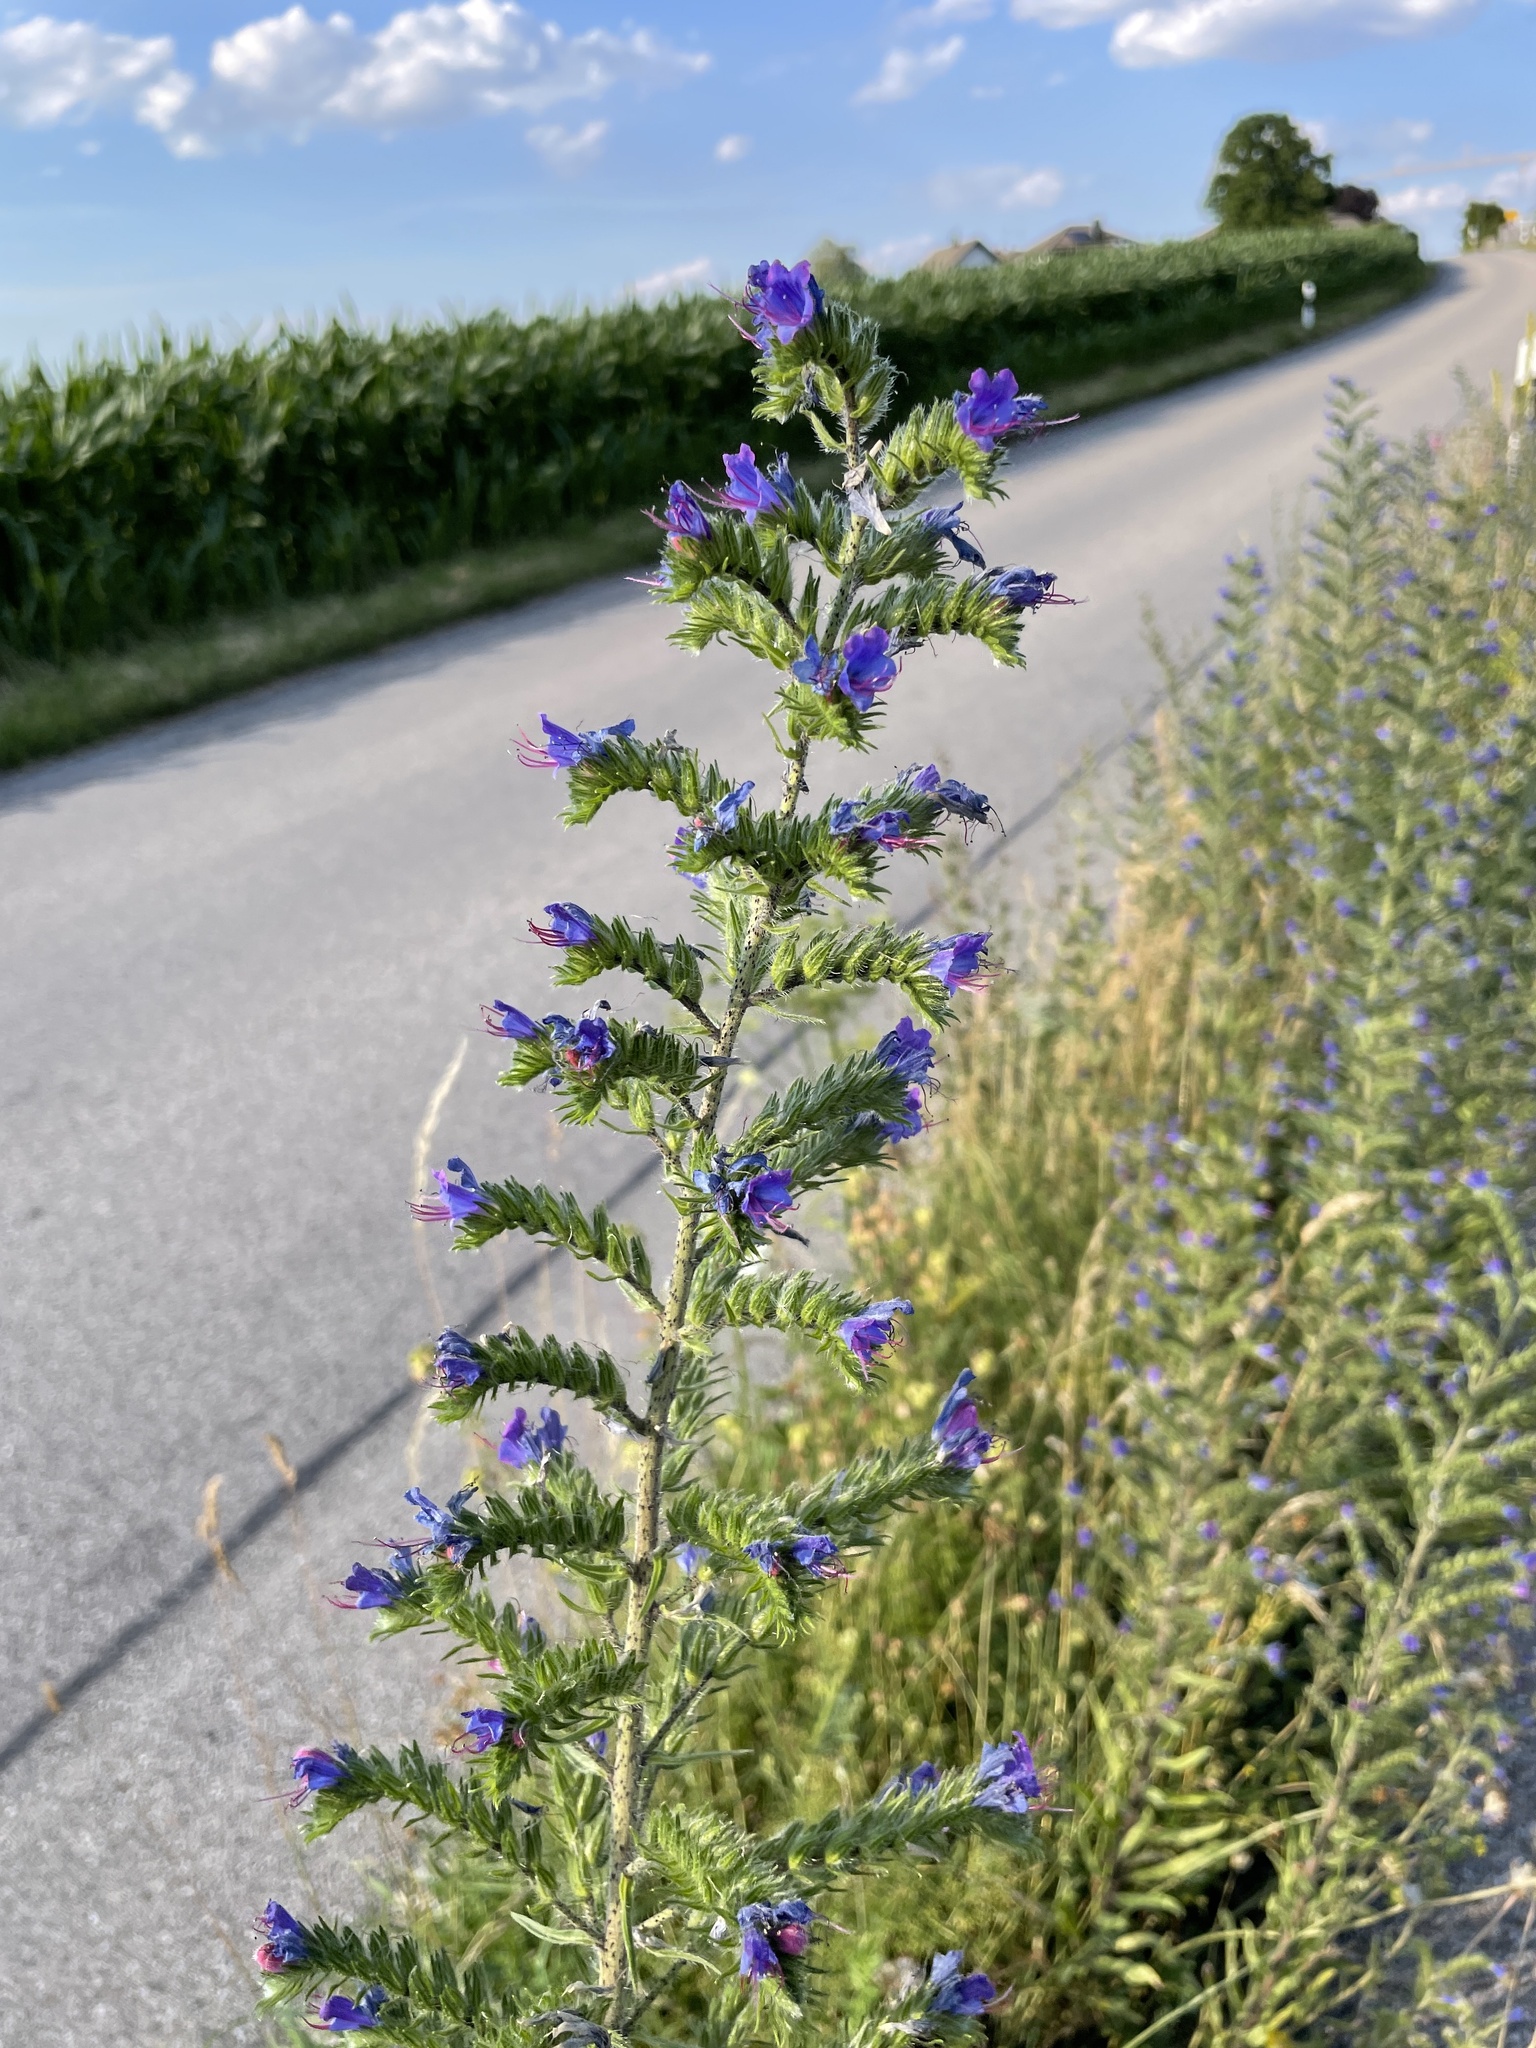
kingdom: Plantae
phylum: Tracheophyta
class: Magnoliopsida
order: Boraginales
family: Boraginaceae
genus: Echium
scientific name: Echium vulgare
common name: Common viper's bugloss
